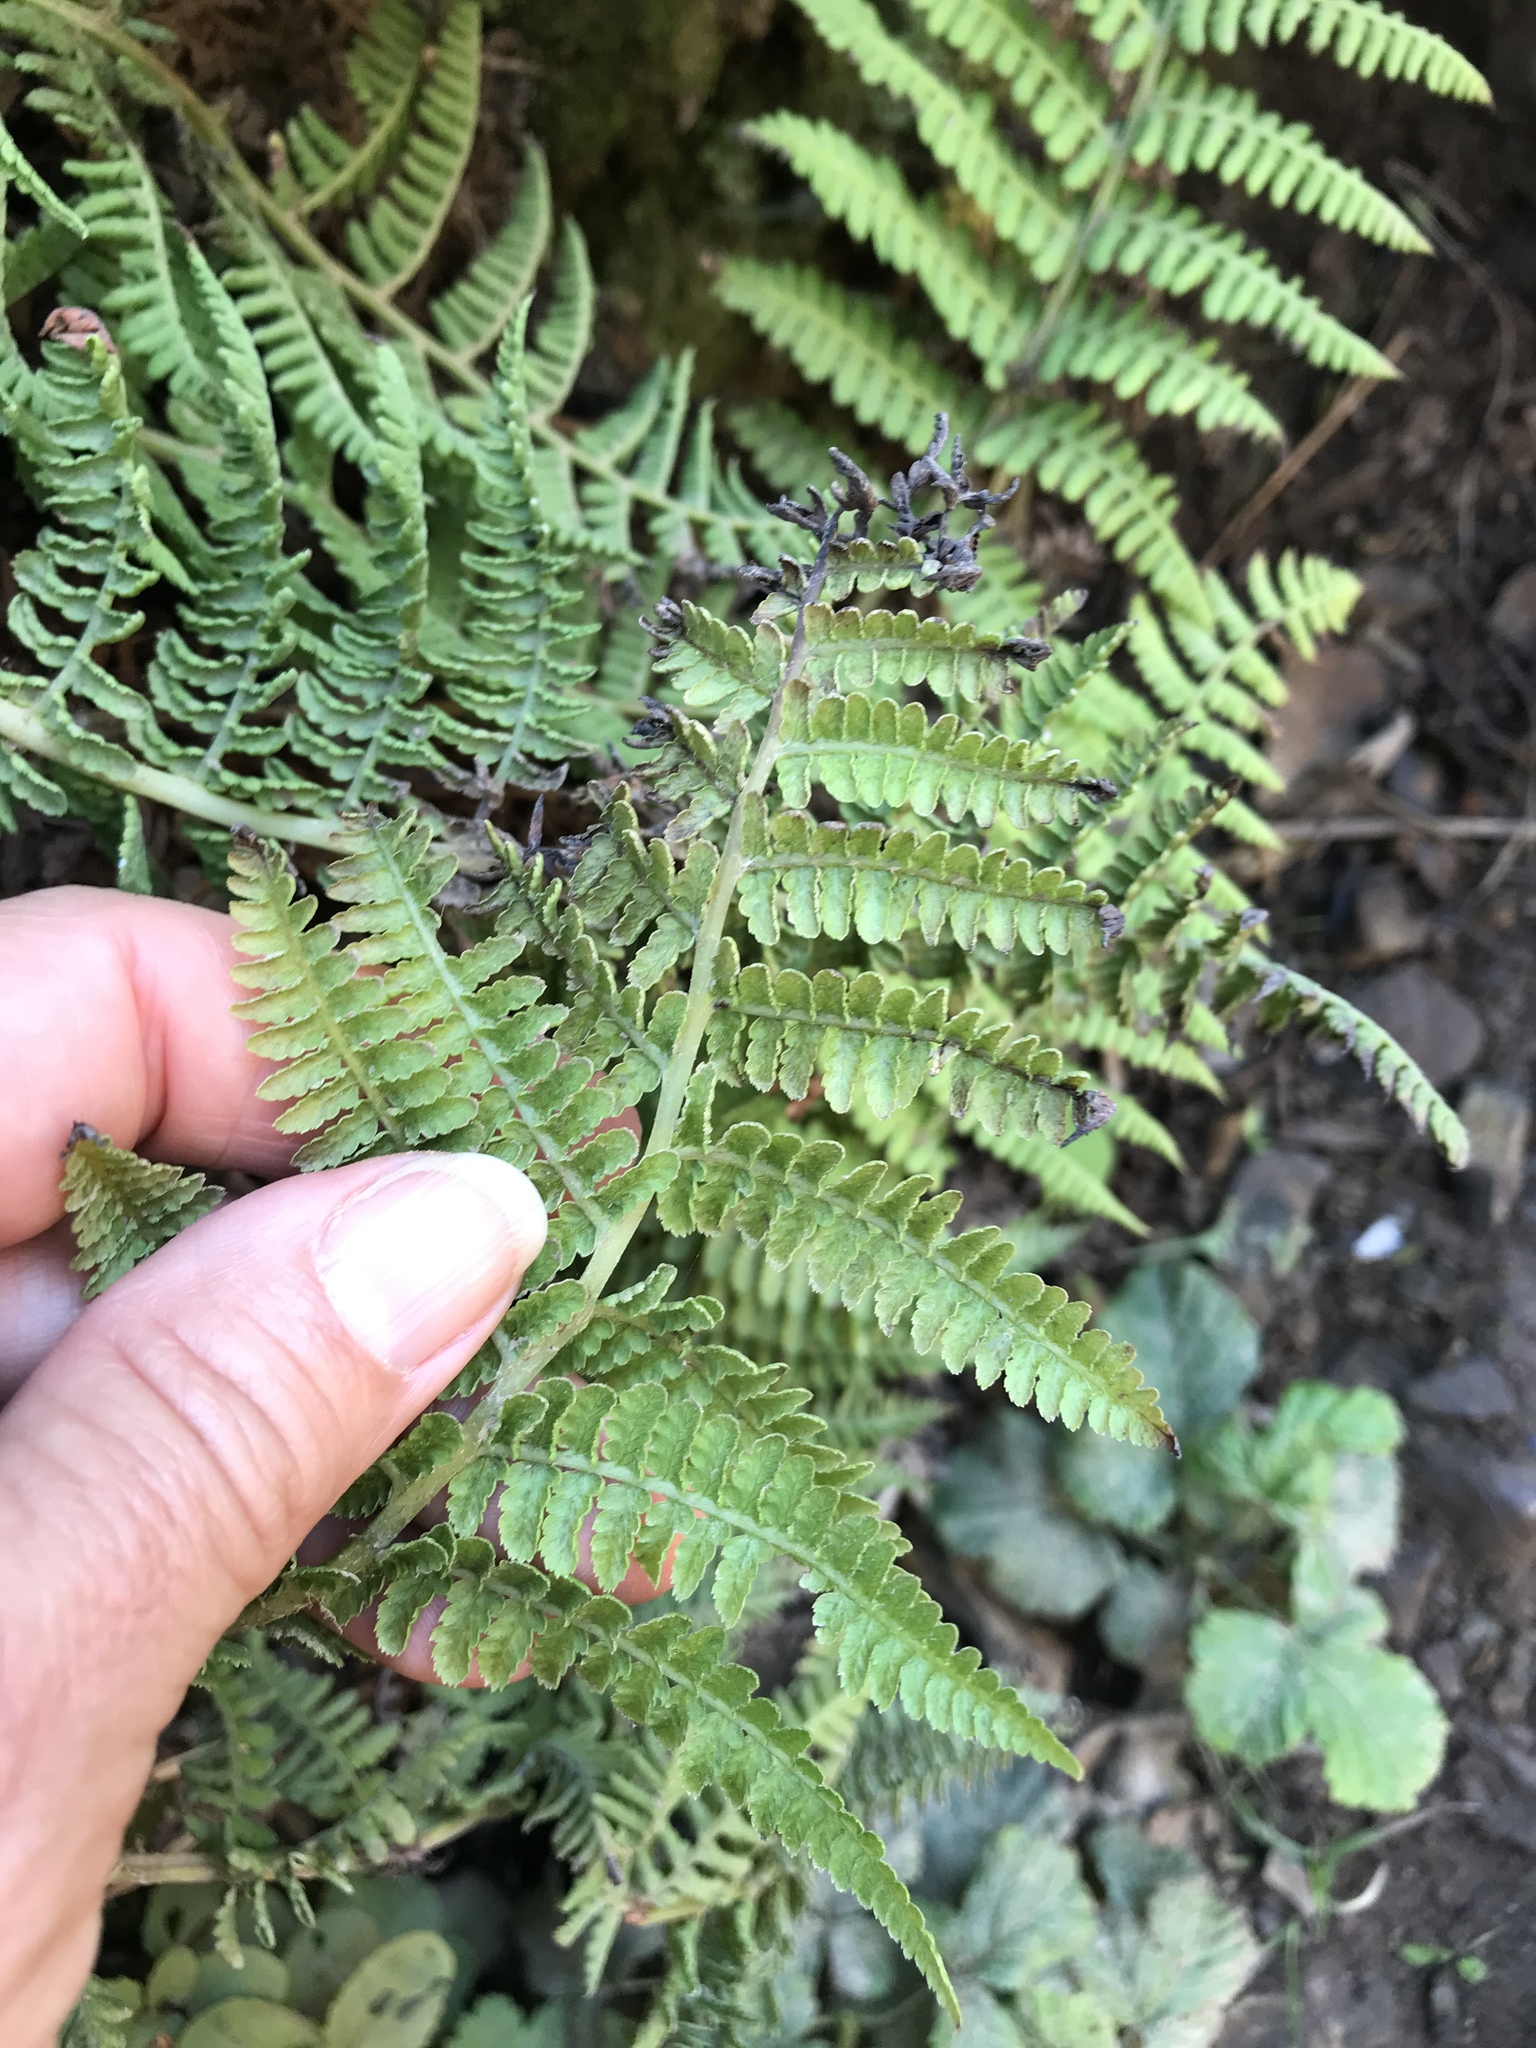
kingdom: Plantae
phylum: Tracheophyta
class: Polypodiopsida
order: Polypodiales
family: Dryopteridaceae
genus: Dryopteris
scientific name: Dryopteris arguta
